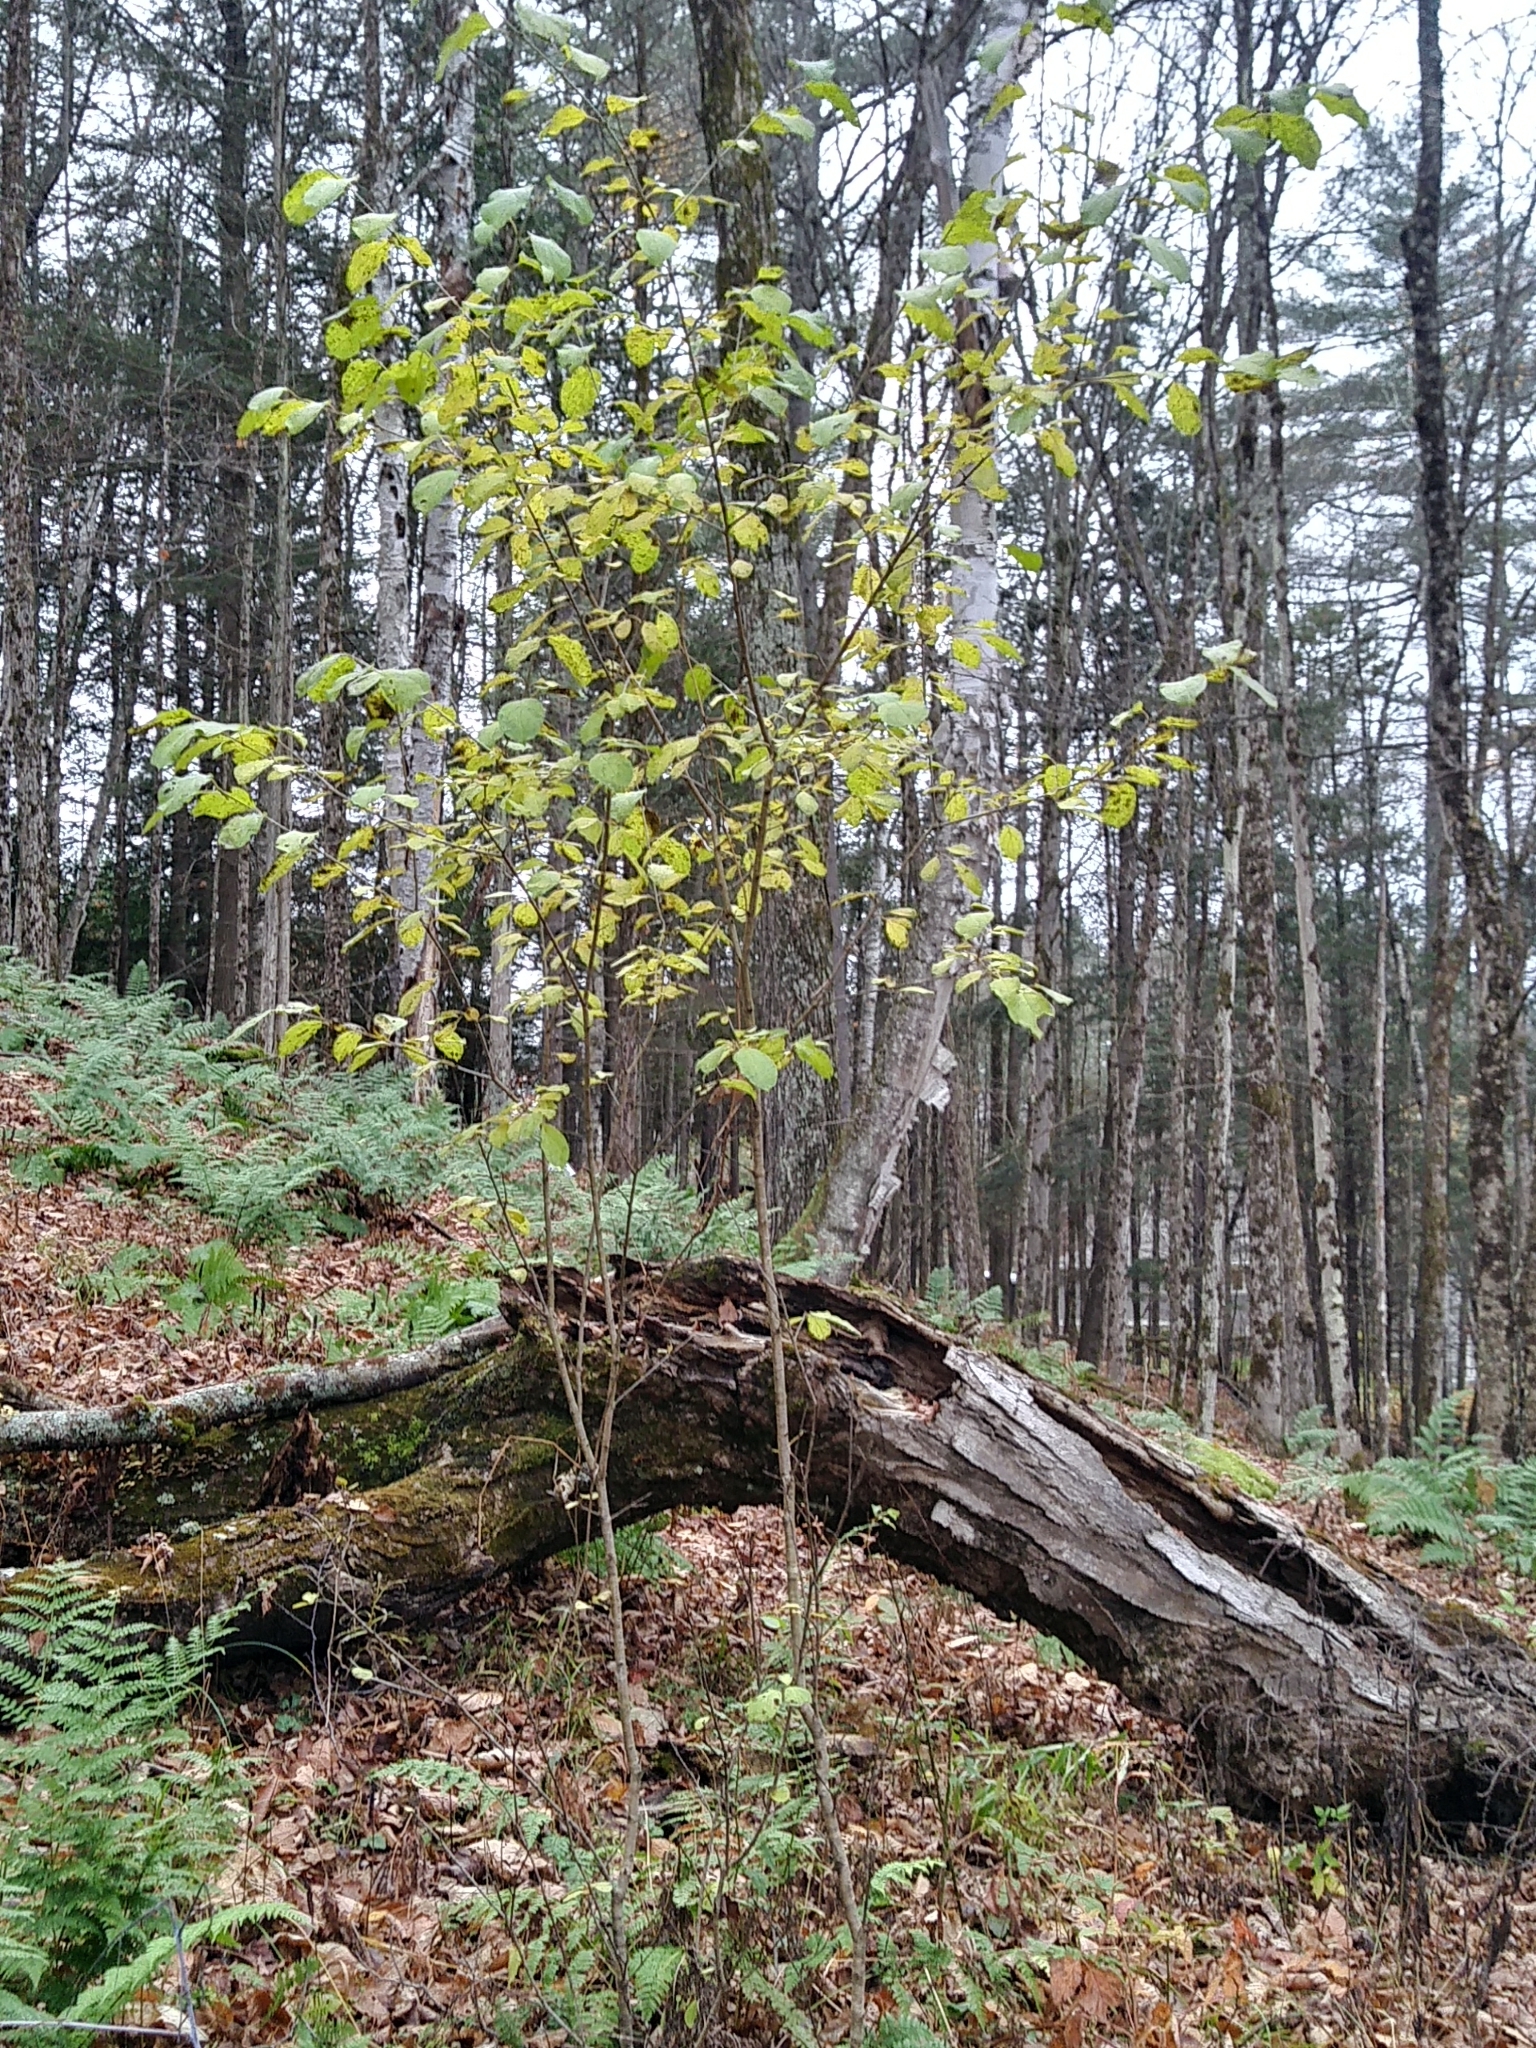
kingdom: Plantae
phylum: Tracheophyta
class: Magnoliopsida
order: Rosales
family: Rhamnaceae
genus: Rhamnus
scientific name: Rhamnus cathartica
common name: Common buckthorn
